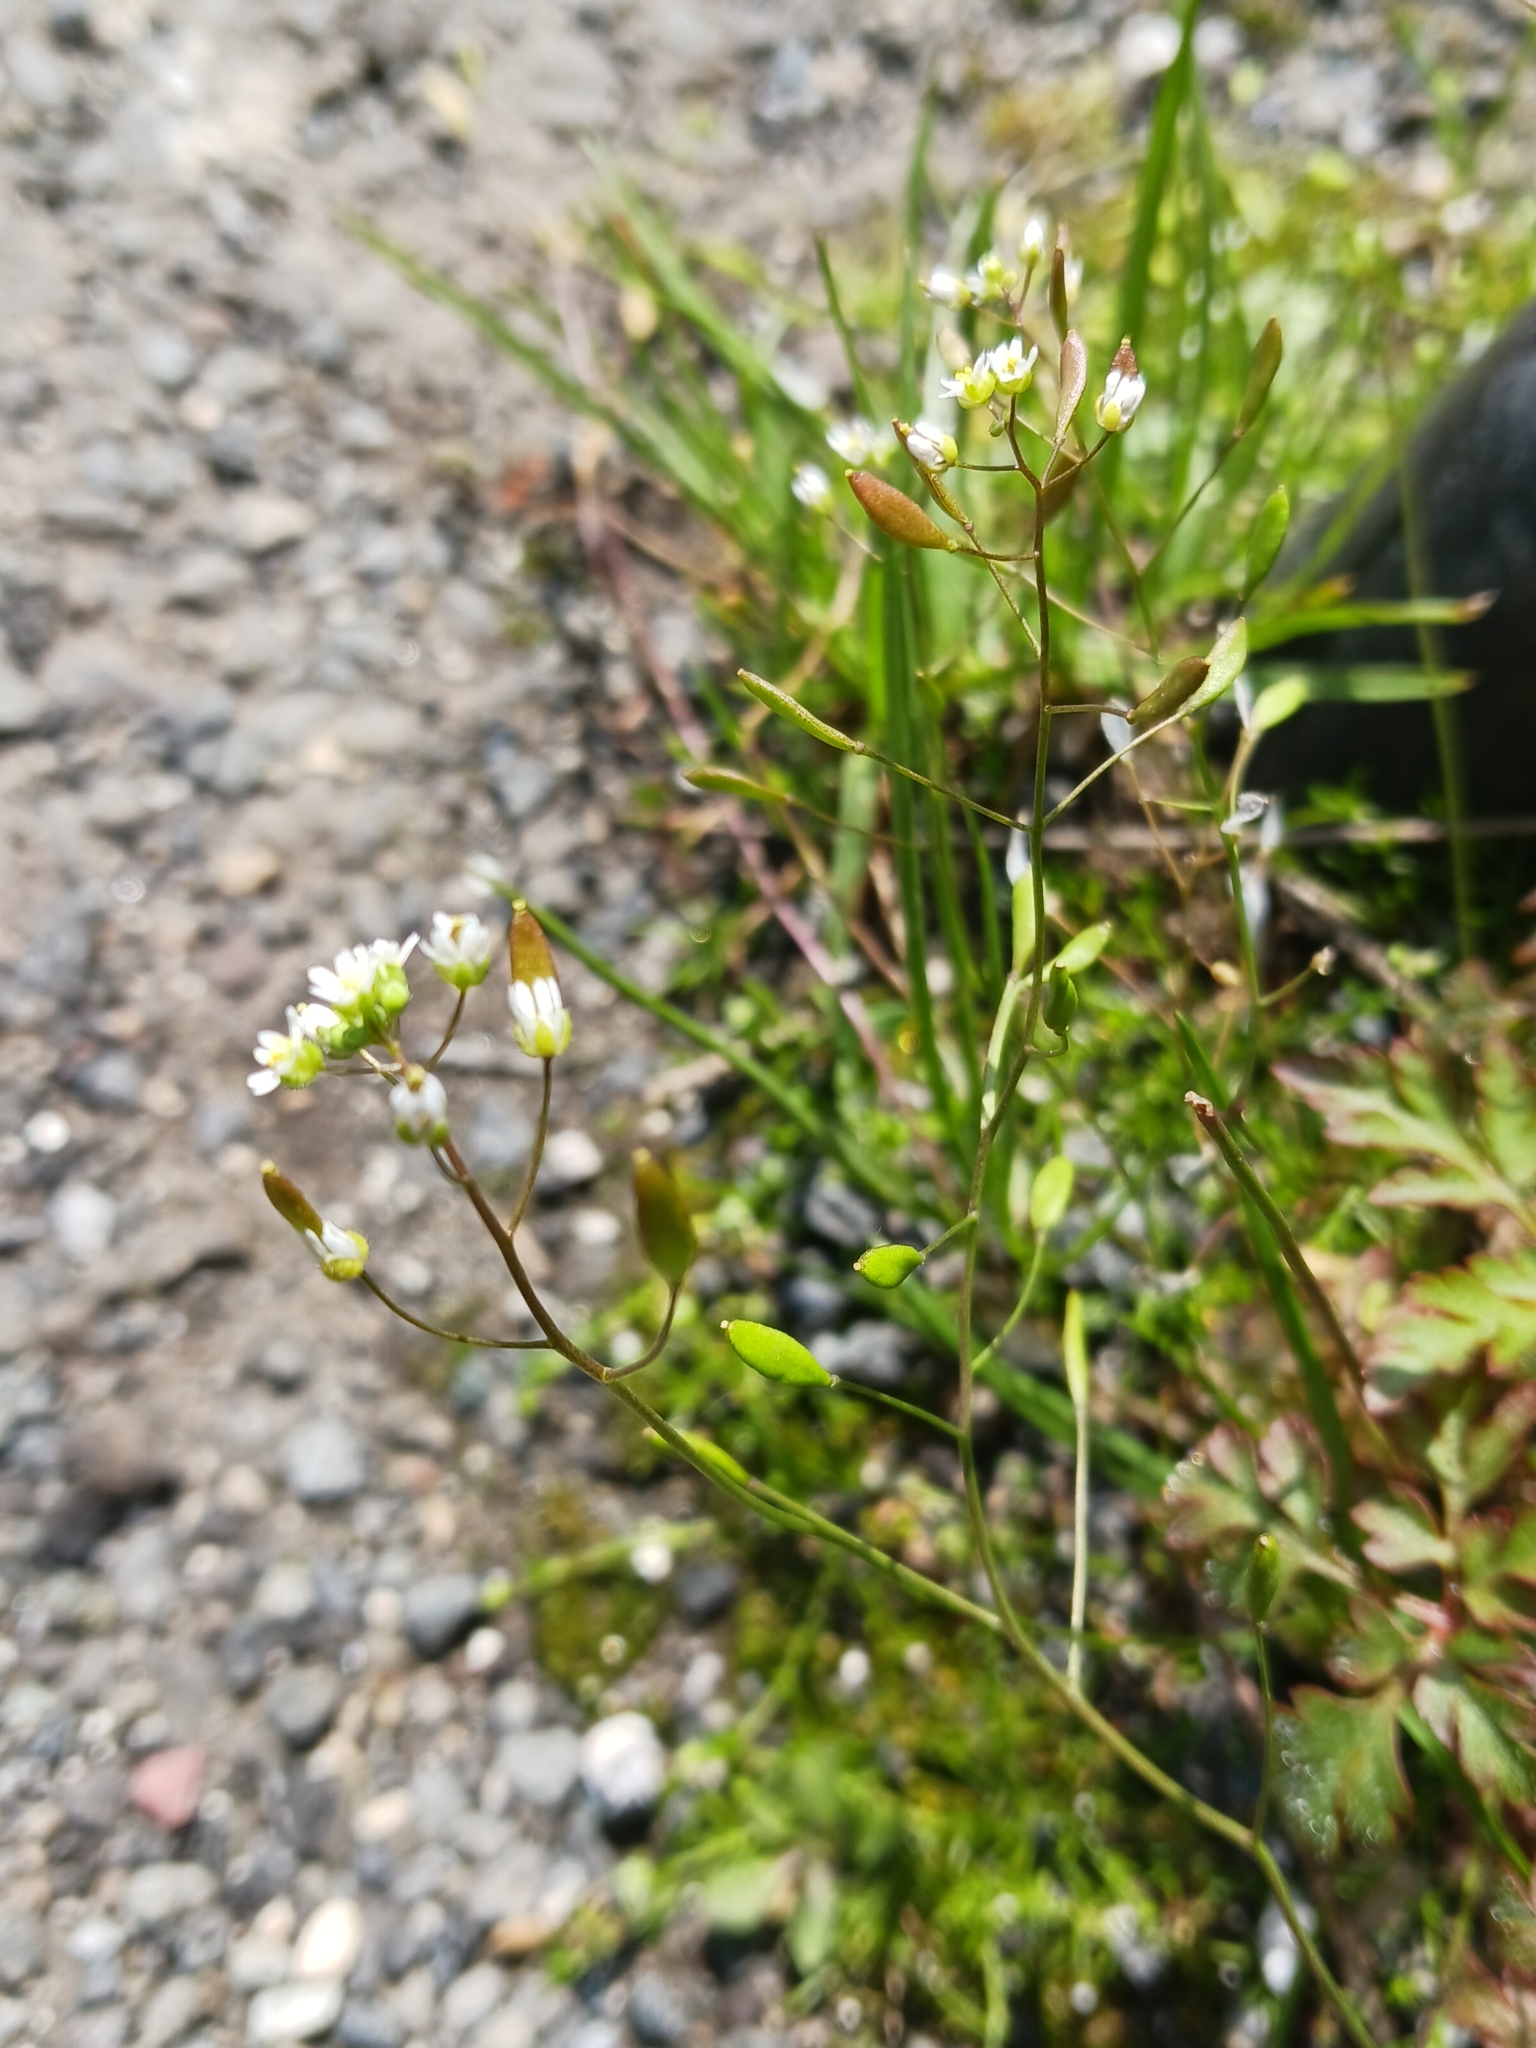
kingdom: Plantae
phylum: Tracheophyta
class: Magnoliopsida
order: Brassicales
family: Brassicaceae
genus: Draba
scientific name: Draba verna
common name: Spring draba
